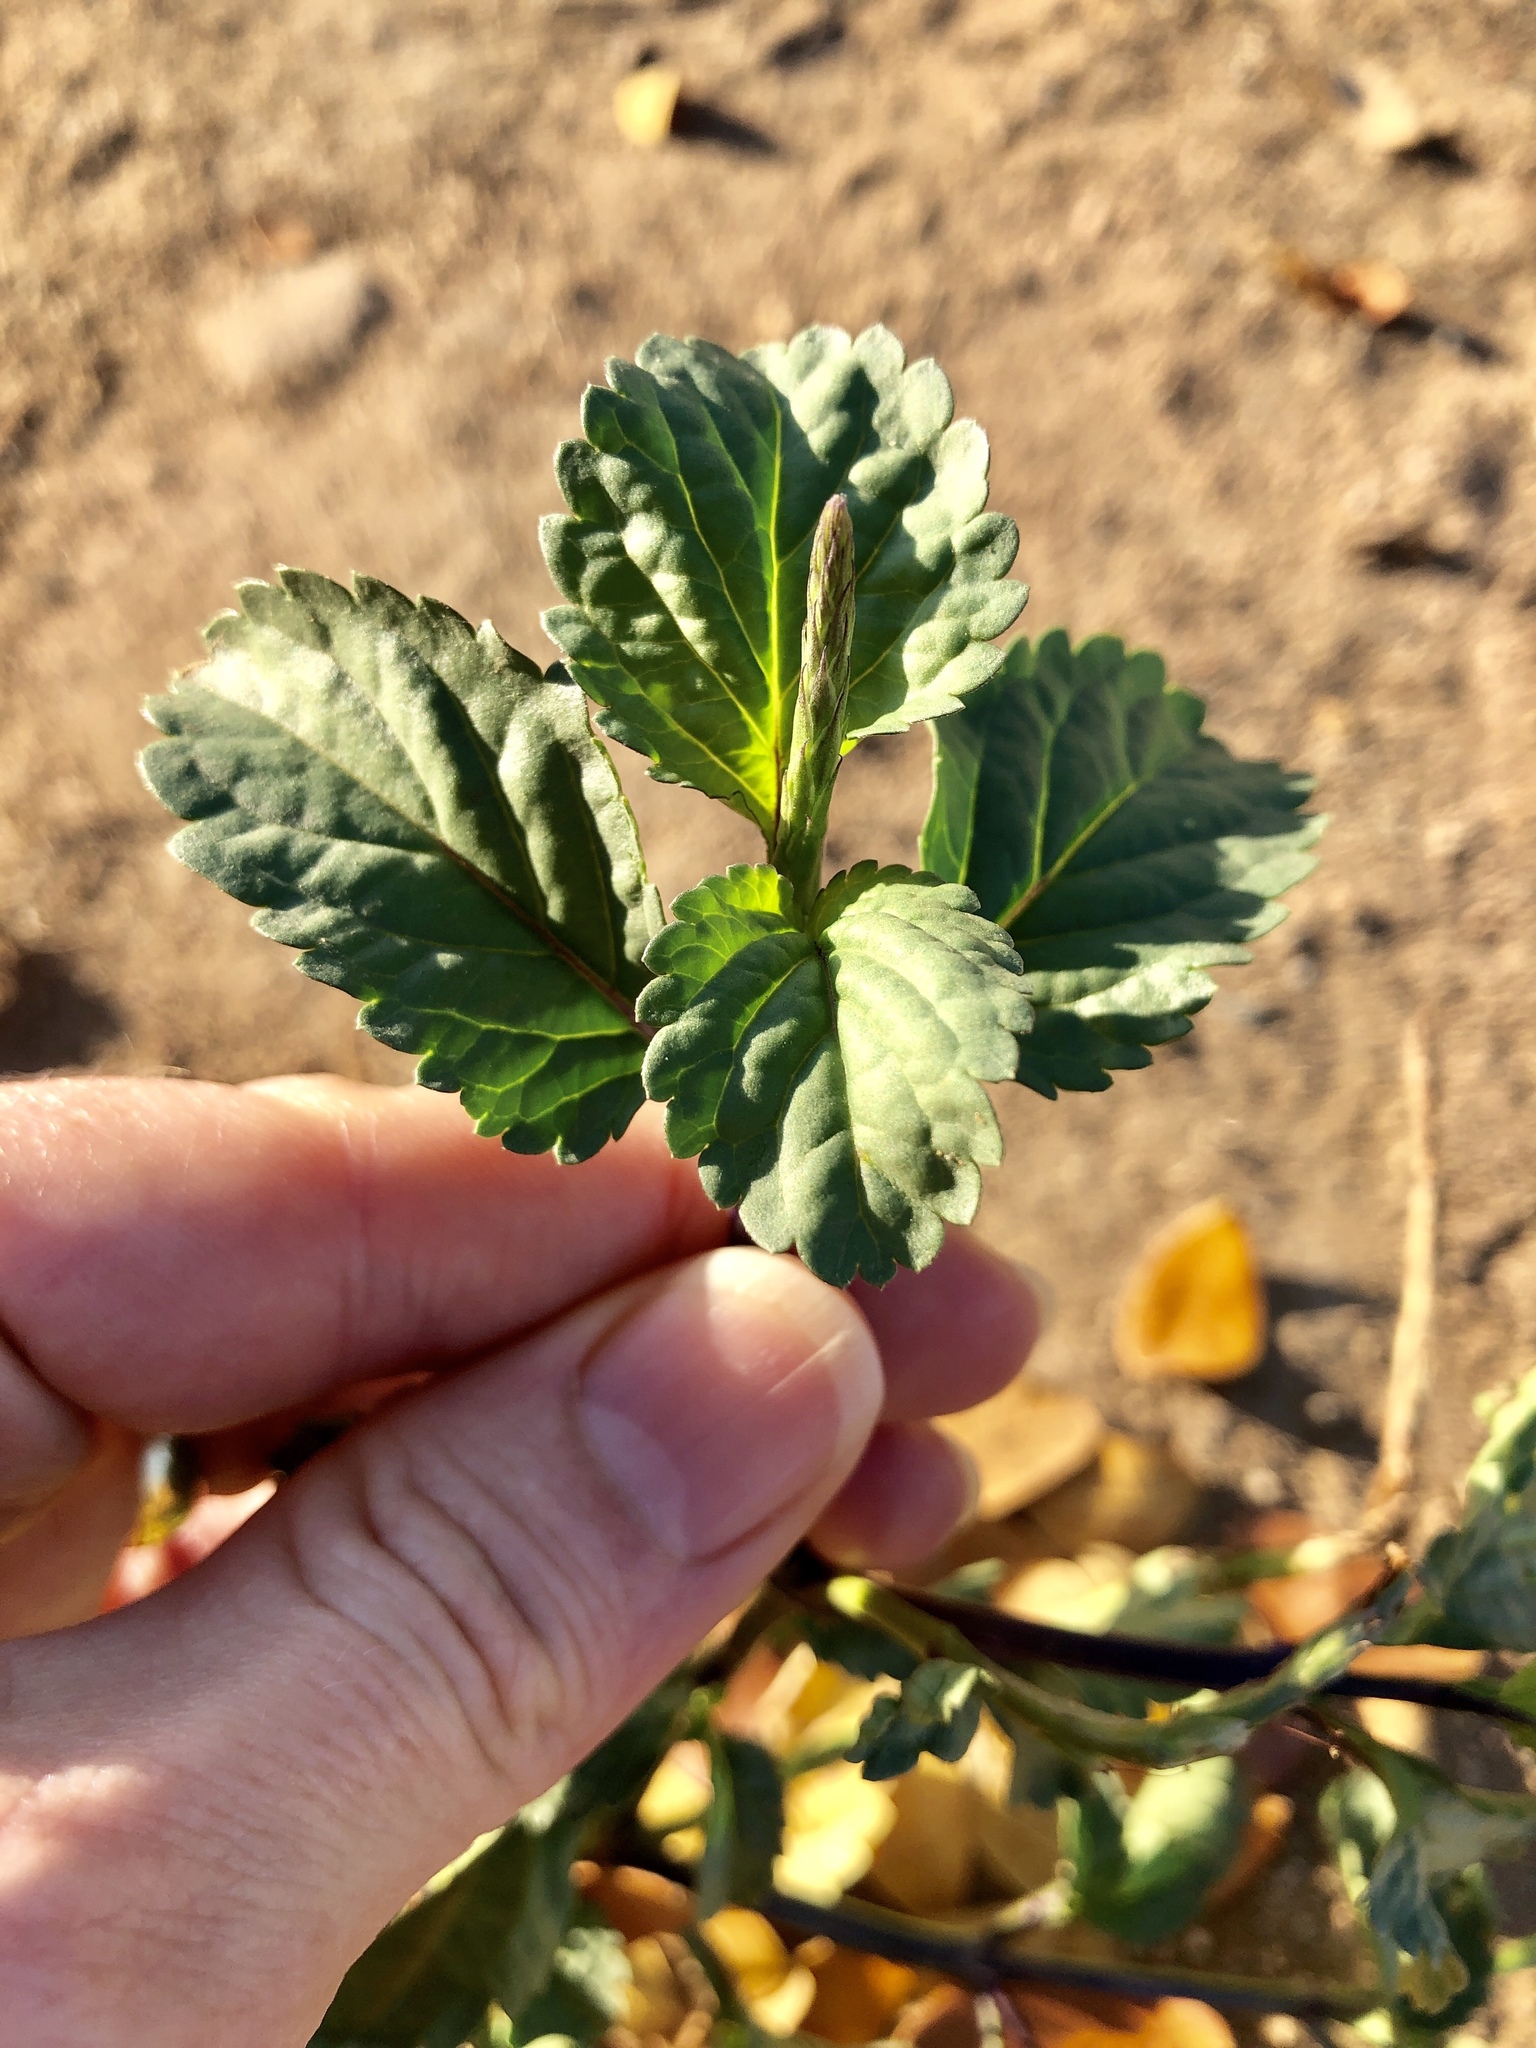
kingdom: Plantae
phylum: Tracheophyta
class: Magnoliopsida
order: Lamiales
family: Verbenaceae
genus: Stachytarpheta
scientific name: Stachytarpheta jamaicensis
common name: Light-blue snakeweed
